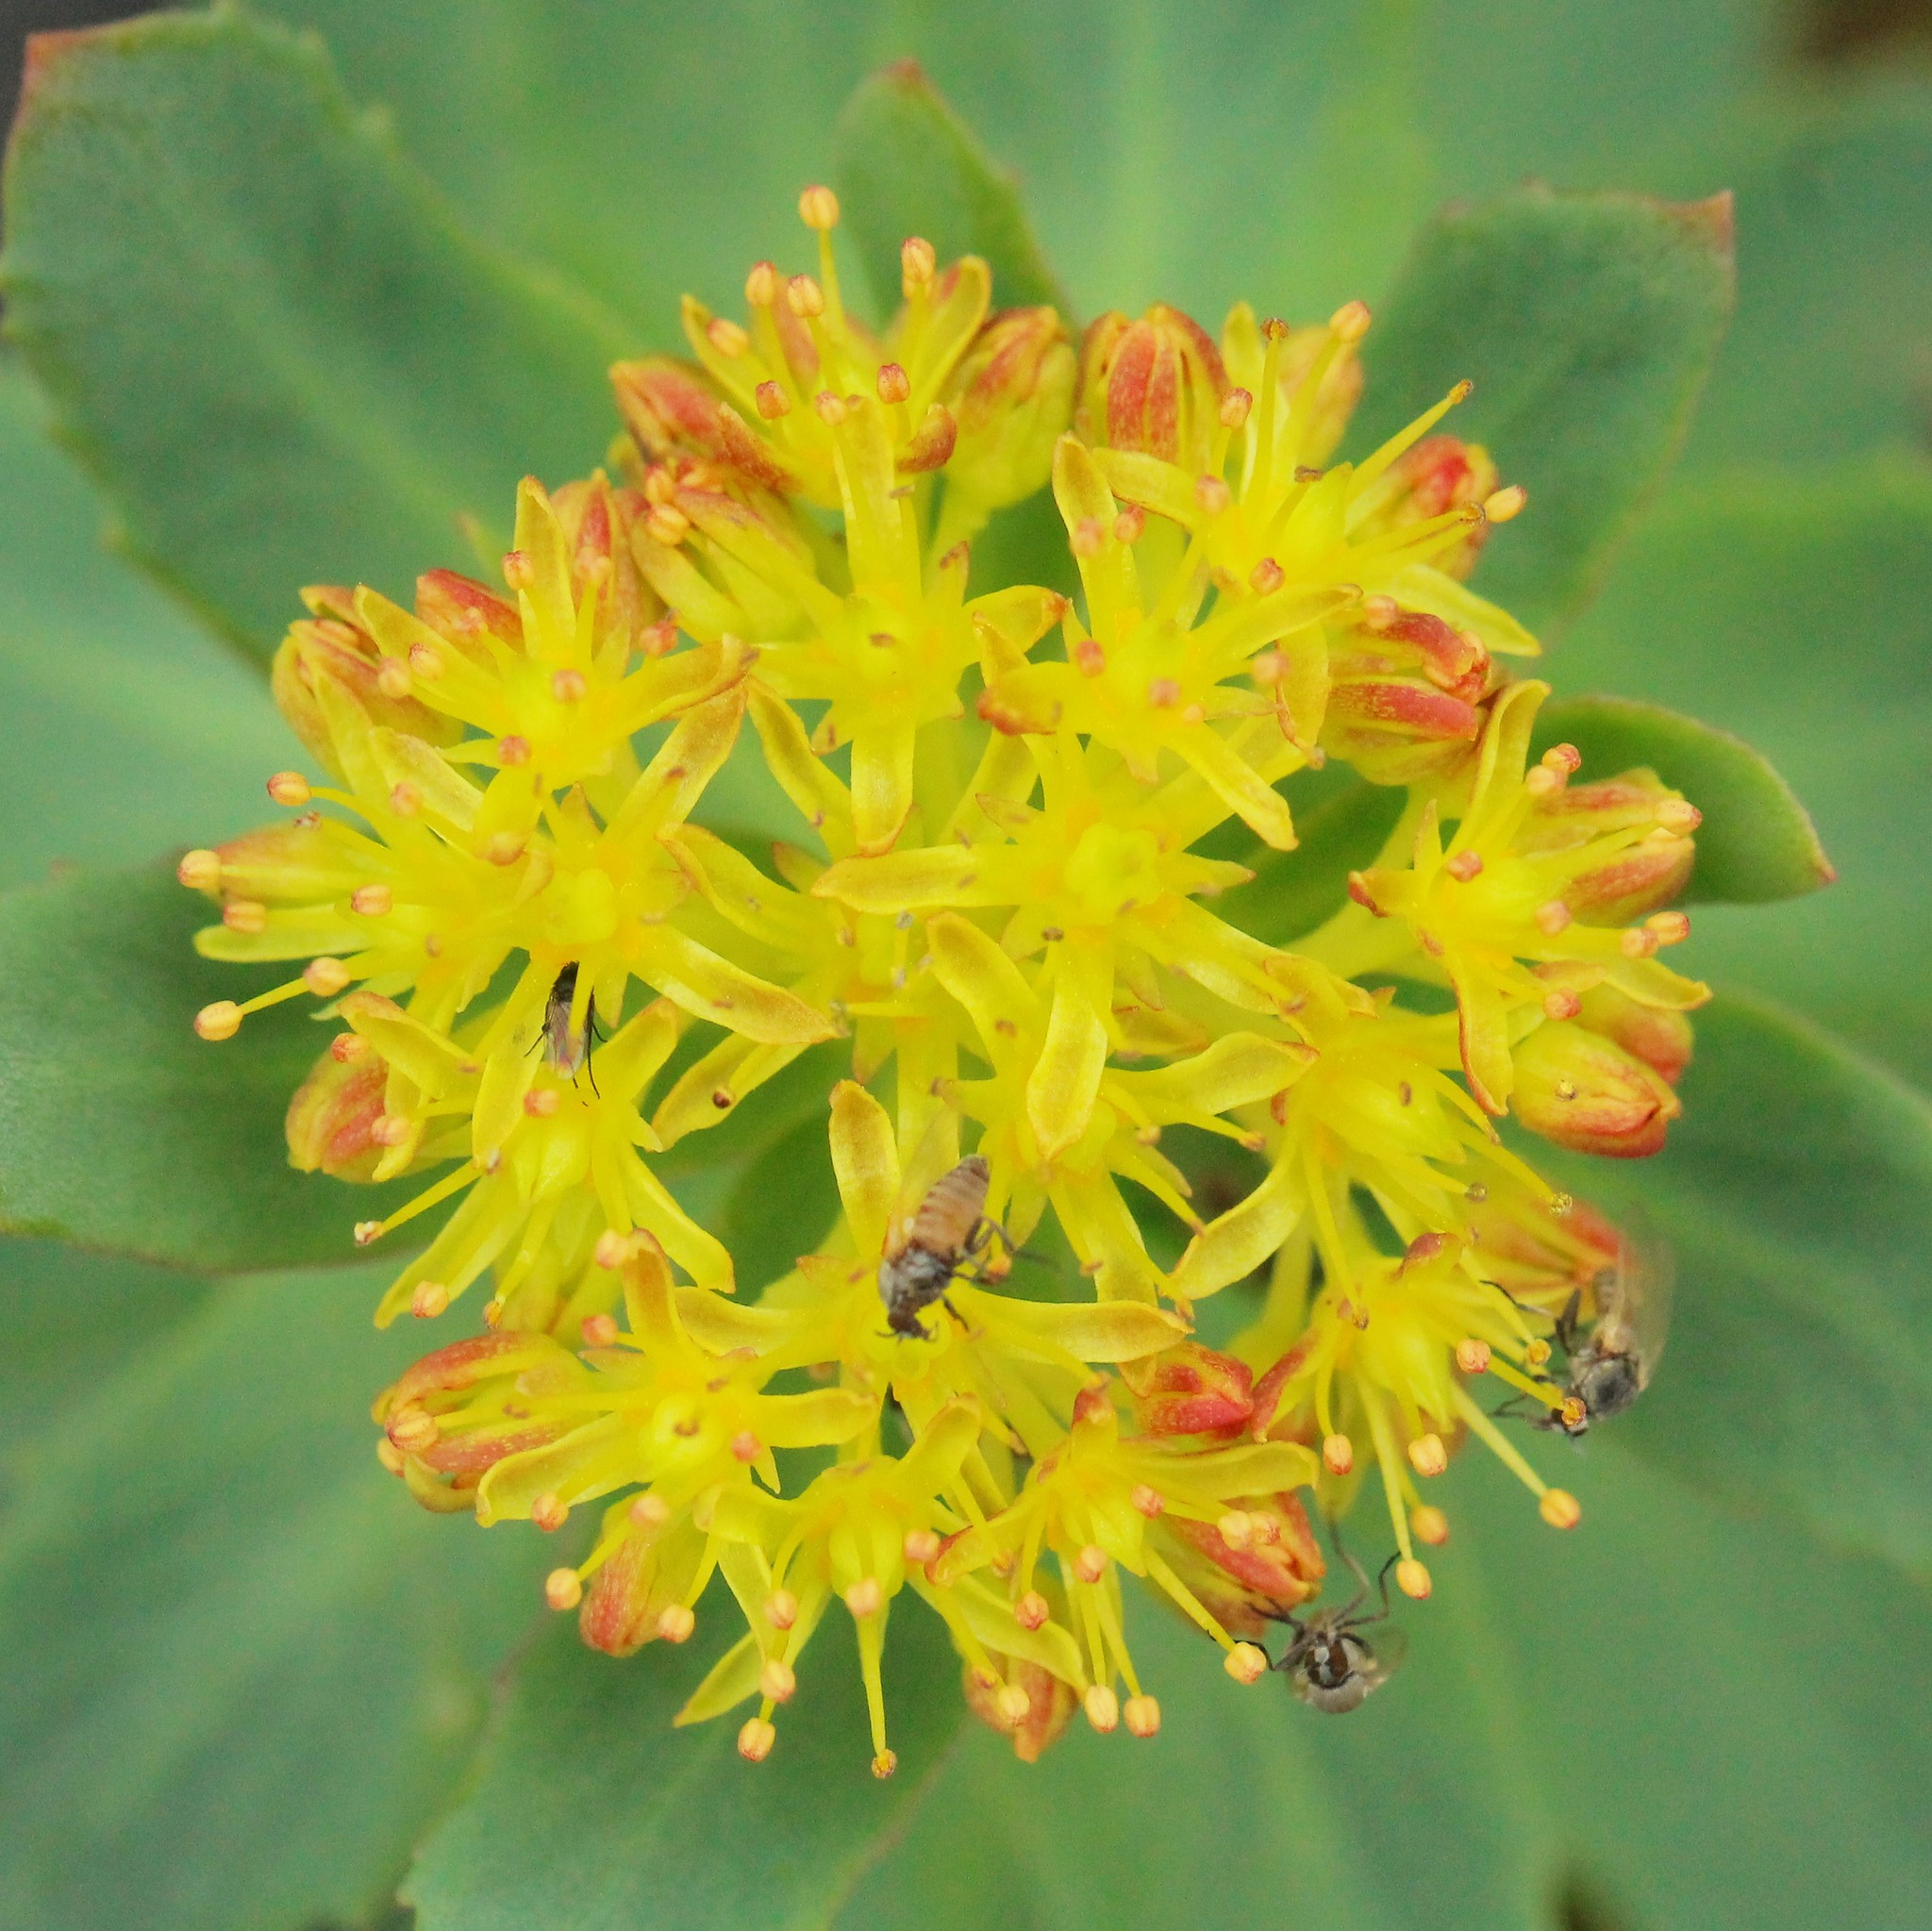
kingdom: Plantae
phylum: Tracheophyta
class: Magnoliopsida
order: Saxifragales
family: Crassulaceae
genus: Rhodiola
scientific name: Rhodiola rosea
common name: Roseroot
